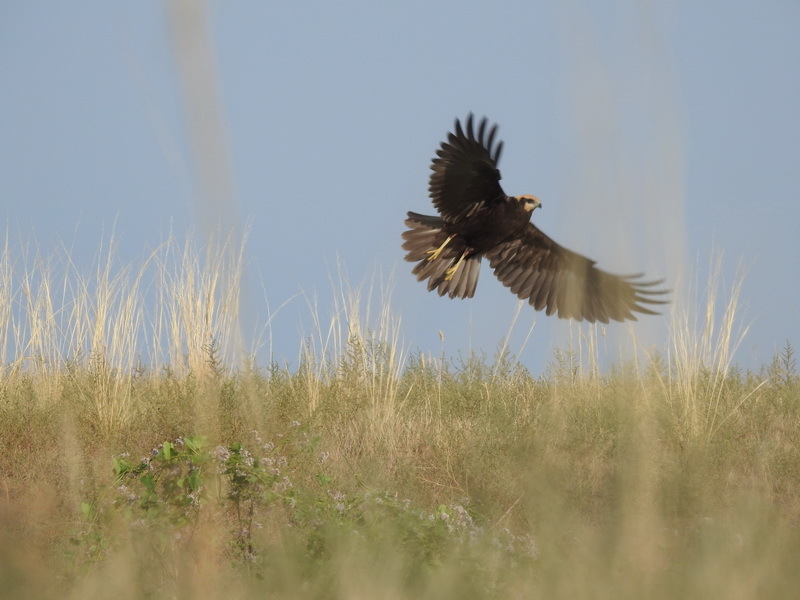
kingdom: Animalia
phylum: Chordata
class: Aves
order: Accipitriformes
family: Accipitridae
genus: Circus
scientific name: Circus aeruginosus
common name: Western marsh harrier
